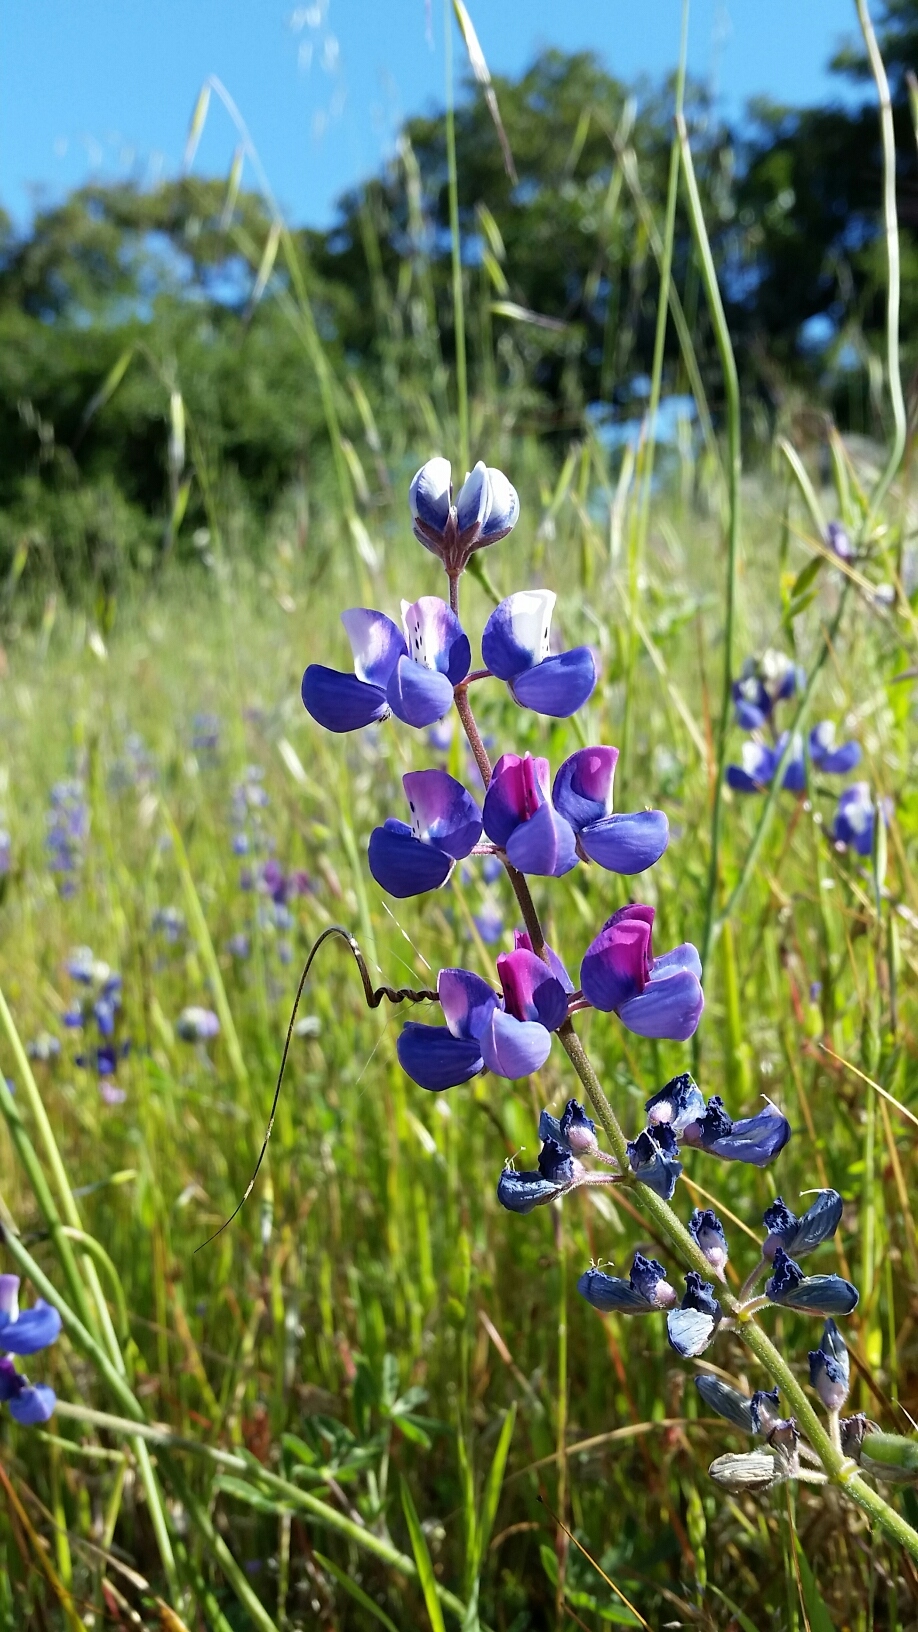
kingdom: Plantae
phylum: Tracheophyta
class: Magnoliopsida
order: Fabales
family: Fabaceae
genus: Lupinus
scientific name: Lupinus nanus
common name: Orean blue lupin
